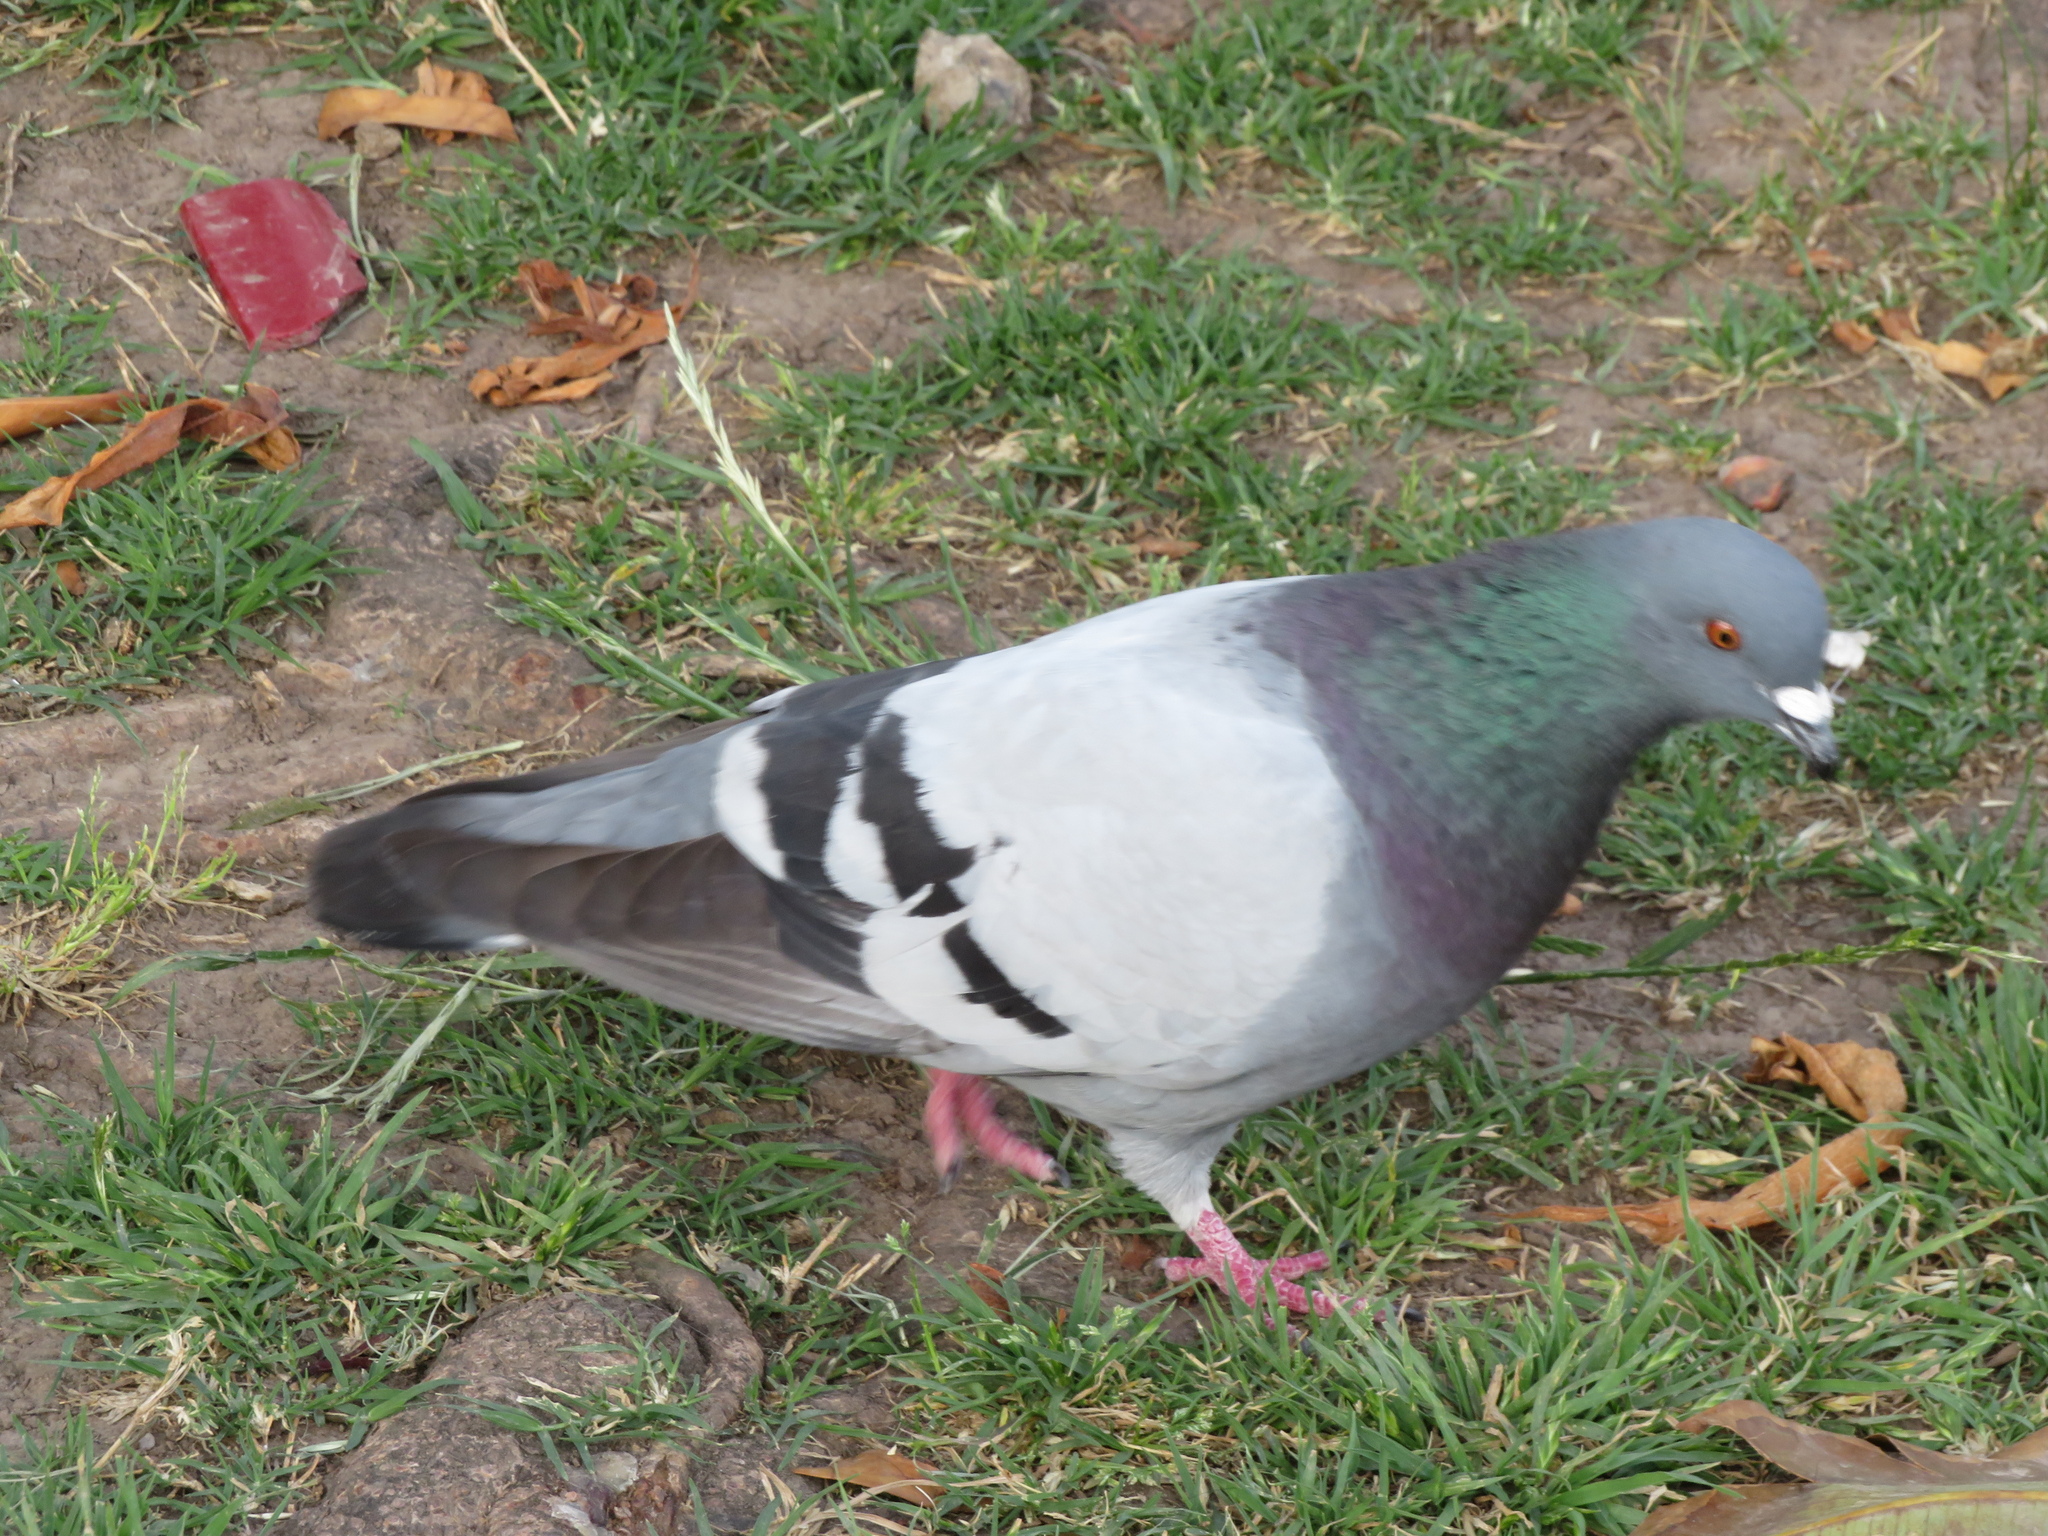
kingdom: Animalia
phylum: Chordata
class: Aves
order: Columbiformes
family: Columbidae
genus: Columba
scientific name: Columba livia
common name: Rock pigeon
